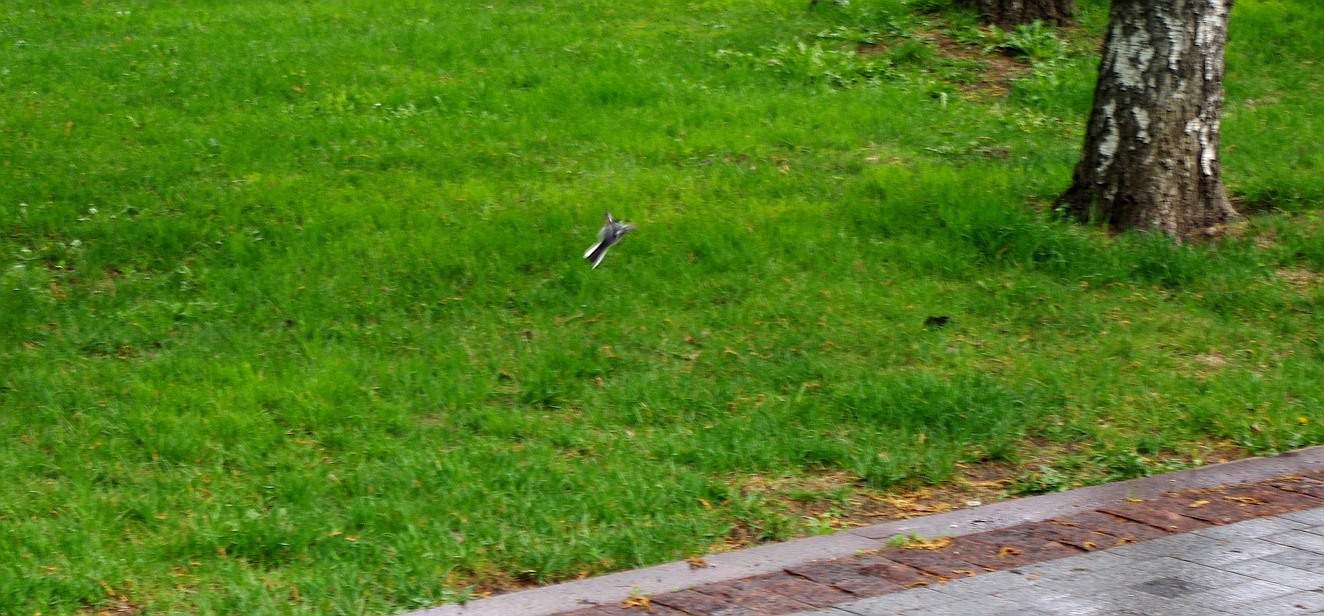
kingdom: Animalia
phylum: Chordata
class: Aves
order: Passeriformes
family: Motacillidae
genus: Motacilla
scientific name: Motacilla alba
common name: White wagtail
